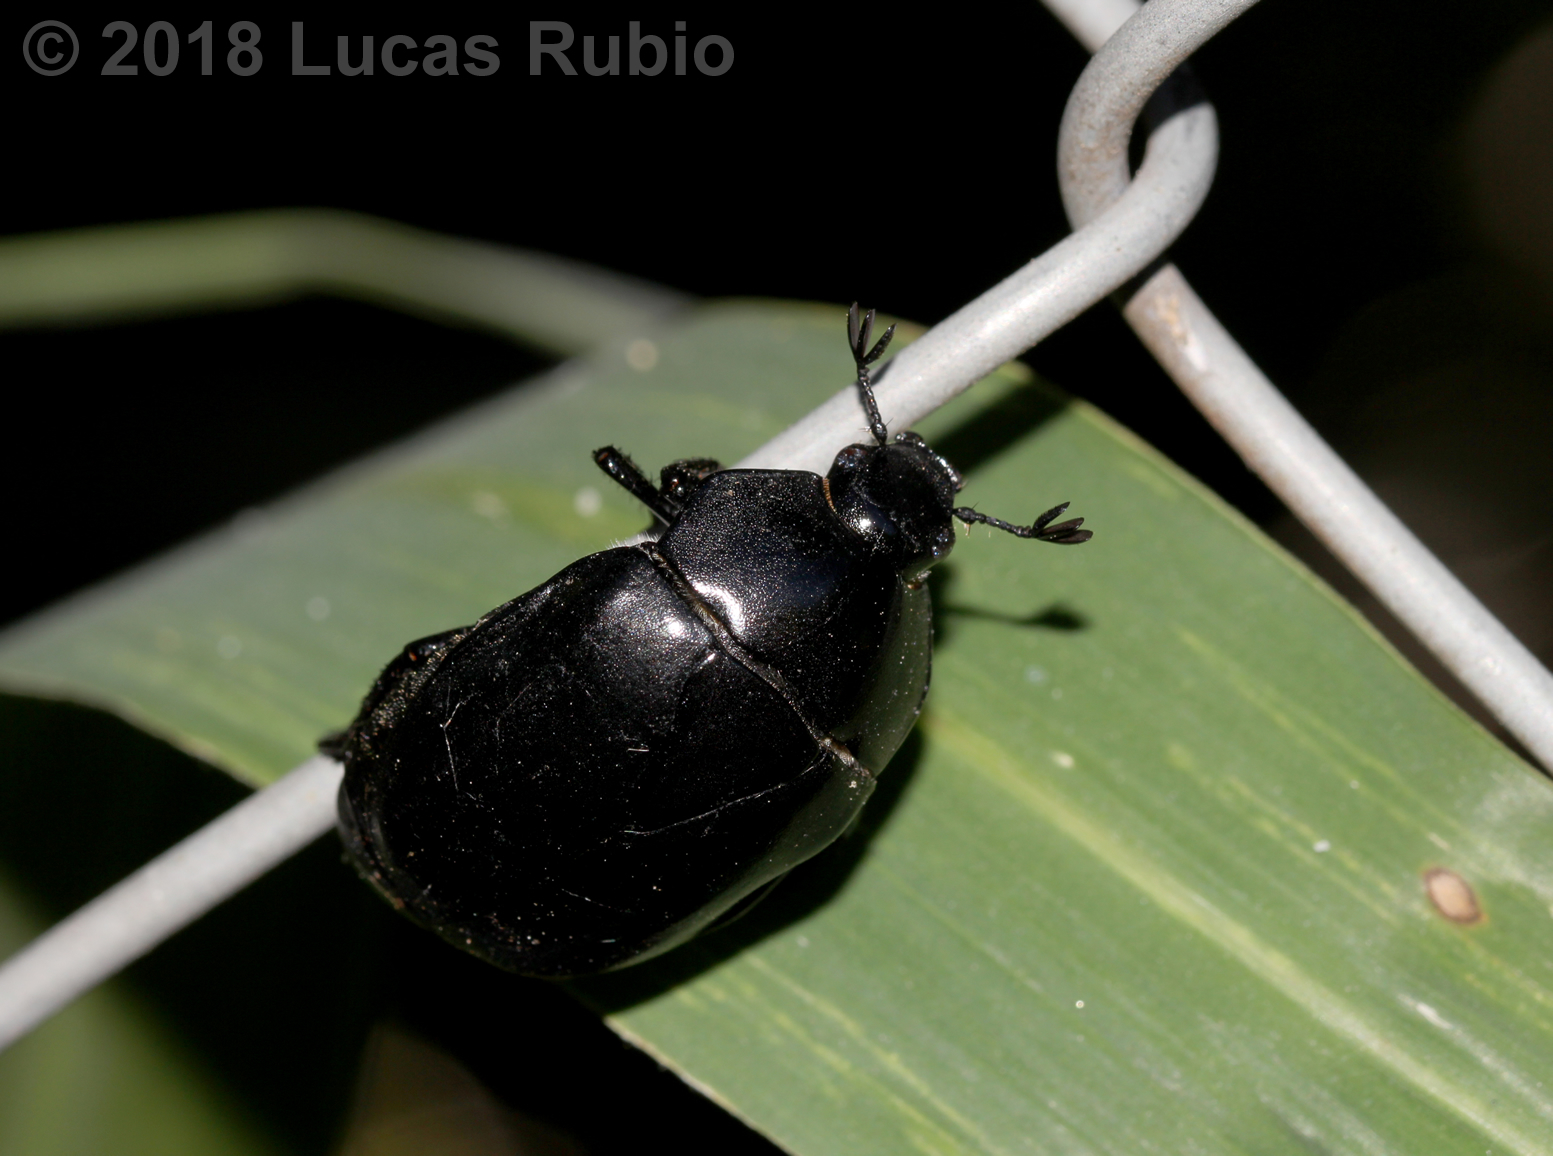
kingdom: Animalia
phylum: Arthropoda
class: Insecta
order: Coleoptera
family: Scarabaeidae
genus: Macraspis
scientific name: Macraspis morio
